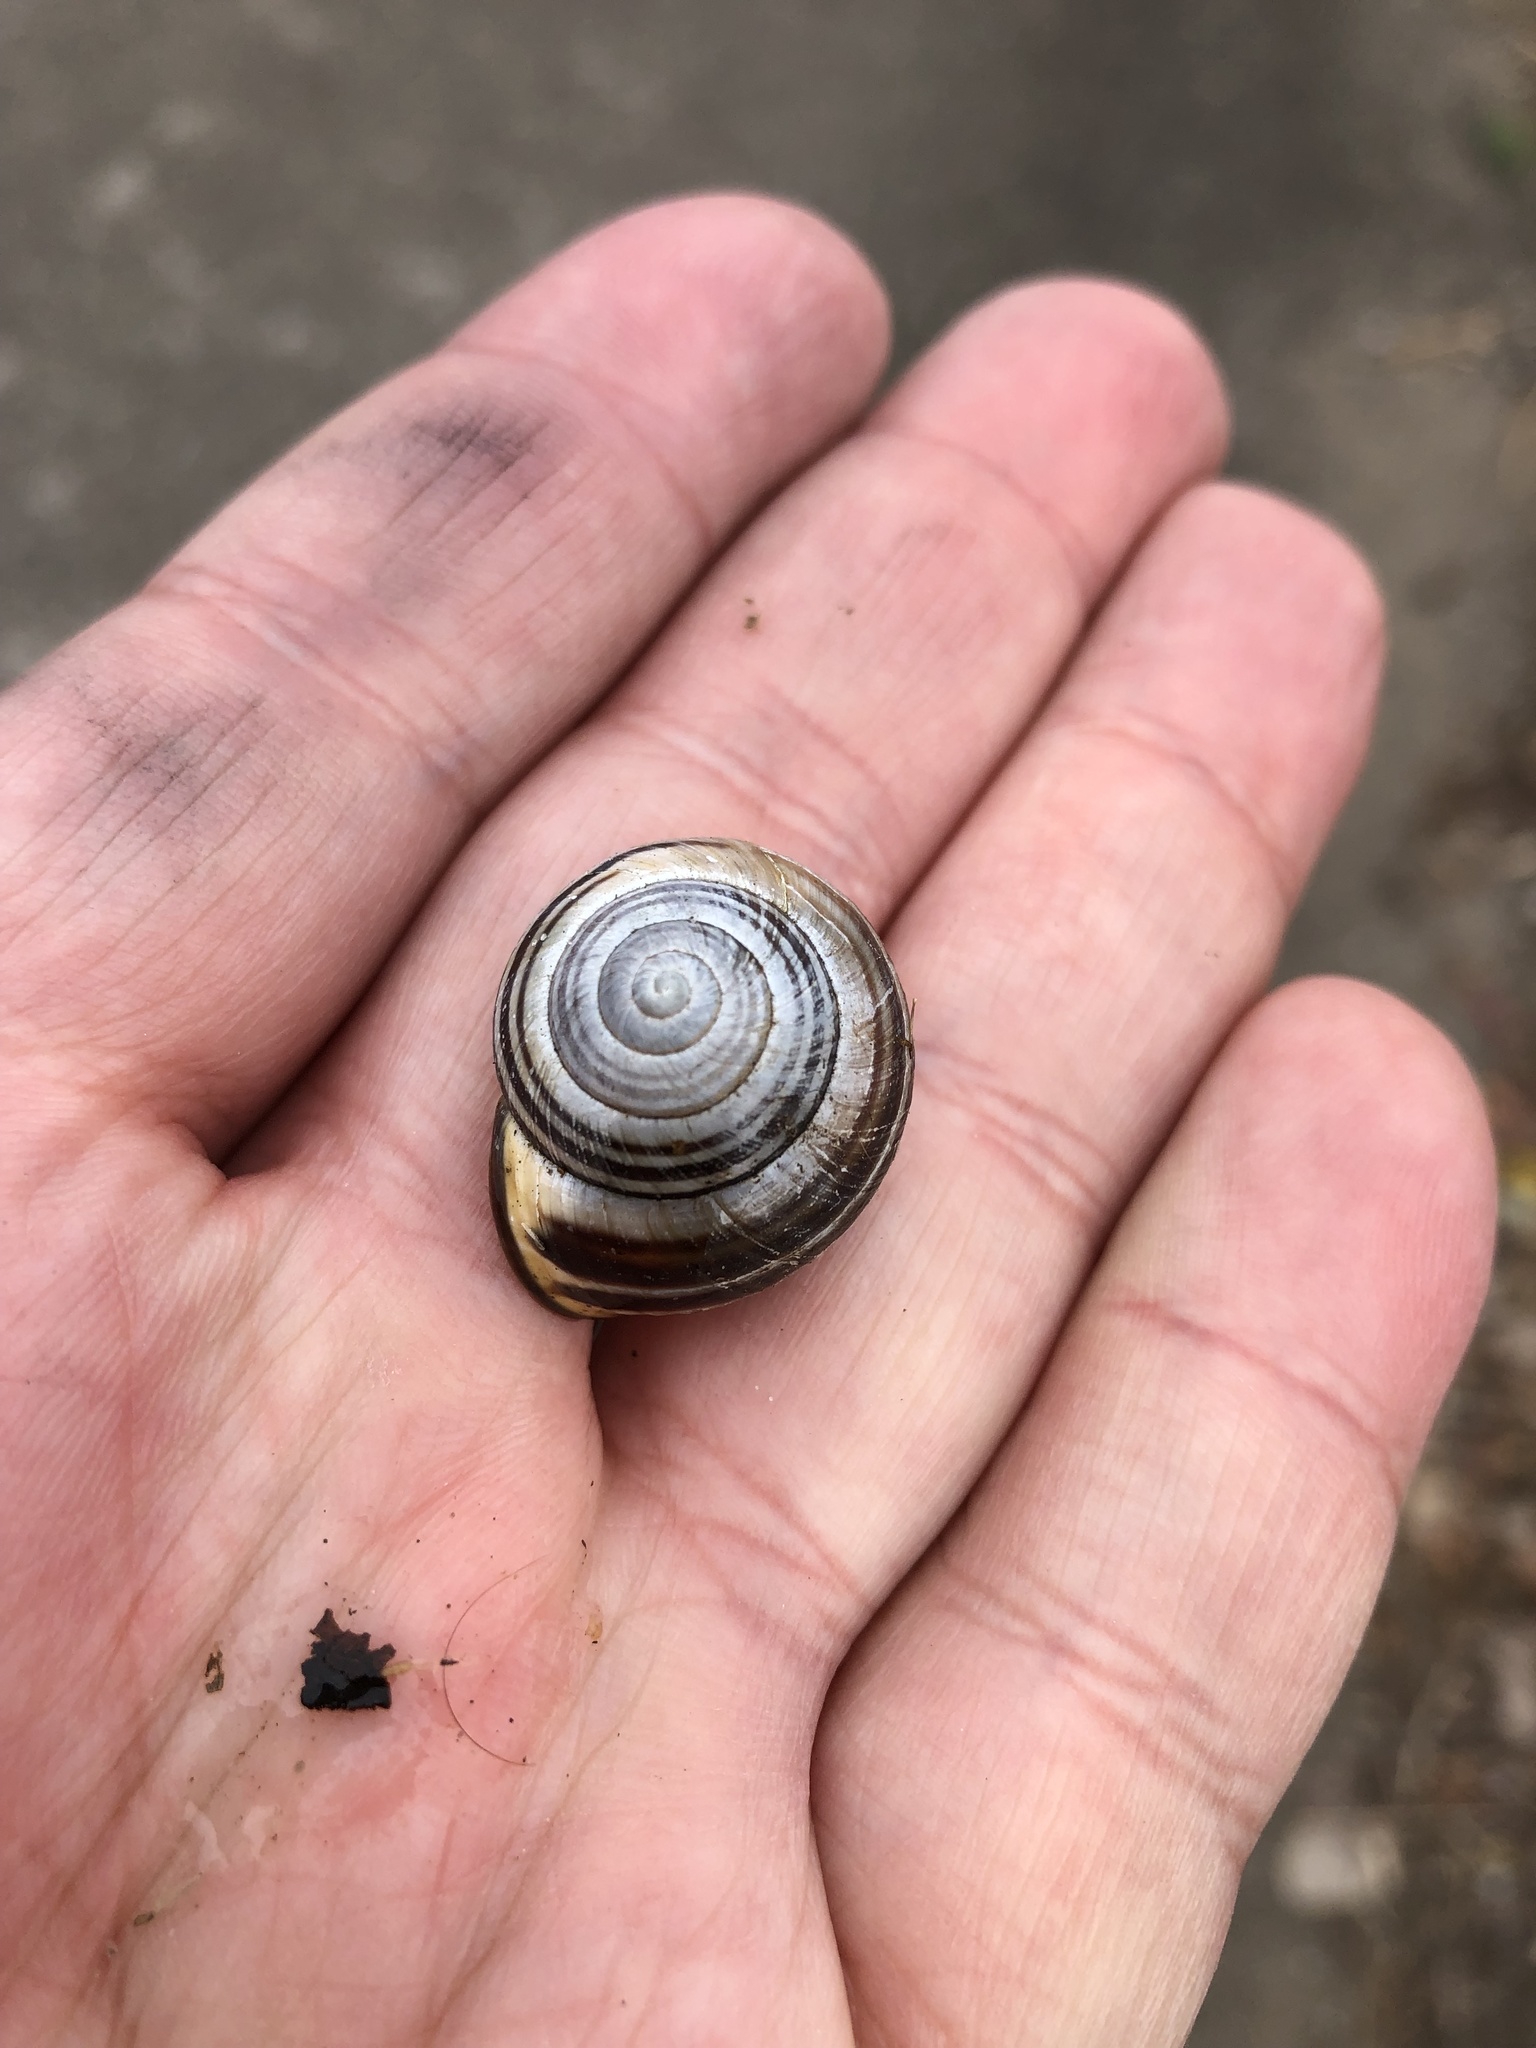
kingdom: Animalia
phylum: Mollusca
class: Gastropoda
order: Stylommatophora
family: Helicidae
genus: Cepaea
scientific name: Cepaea nemoralis
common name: Grovesnail
